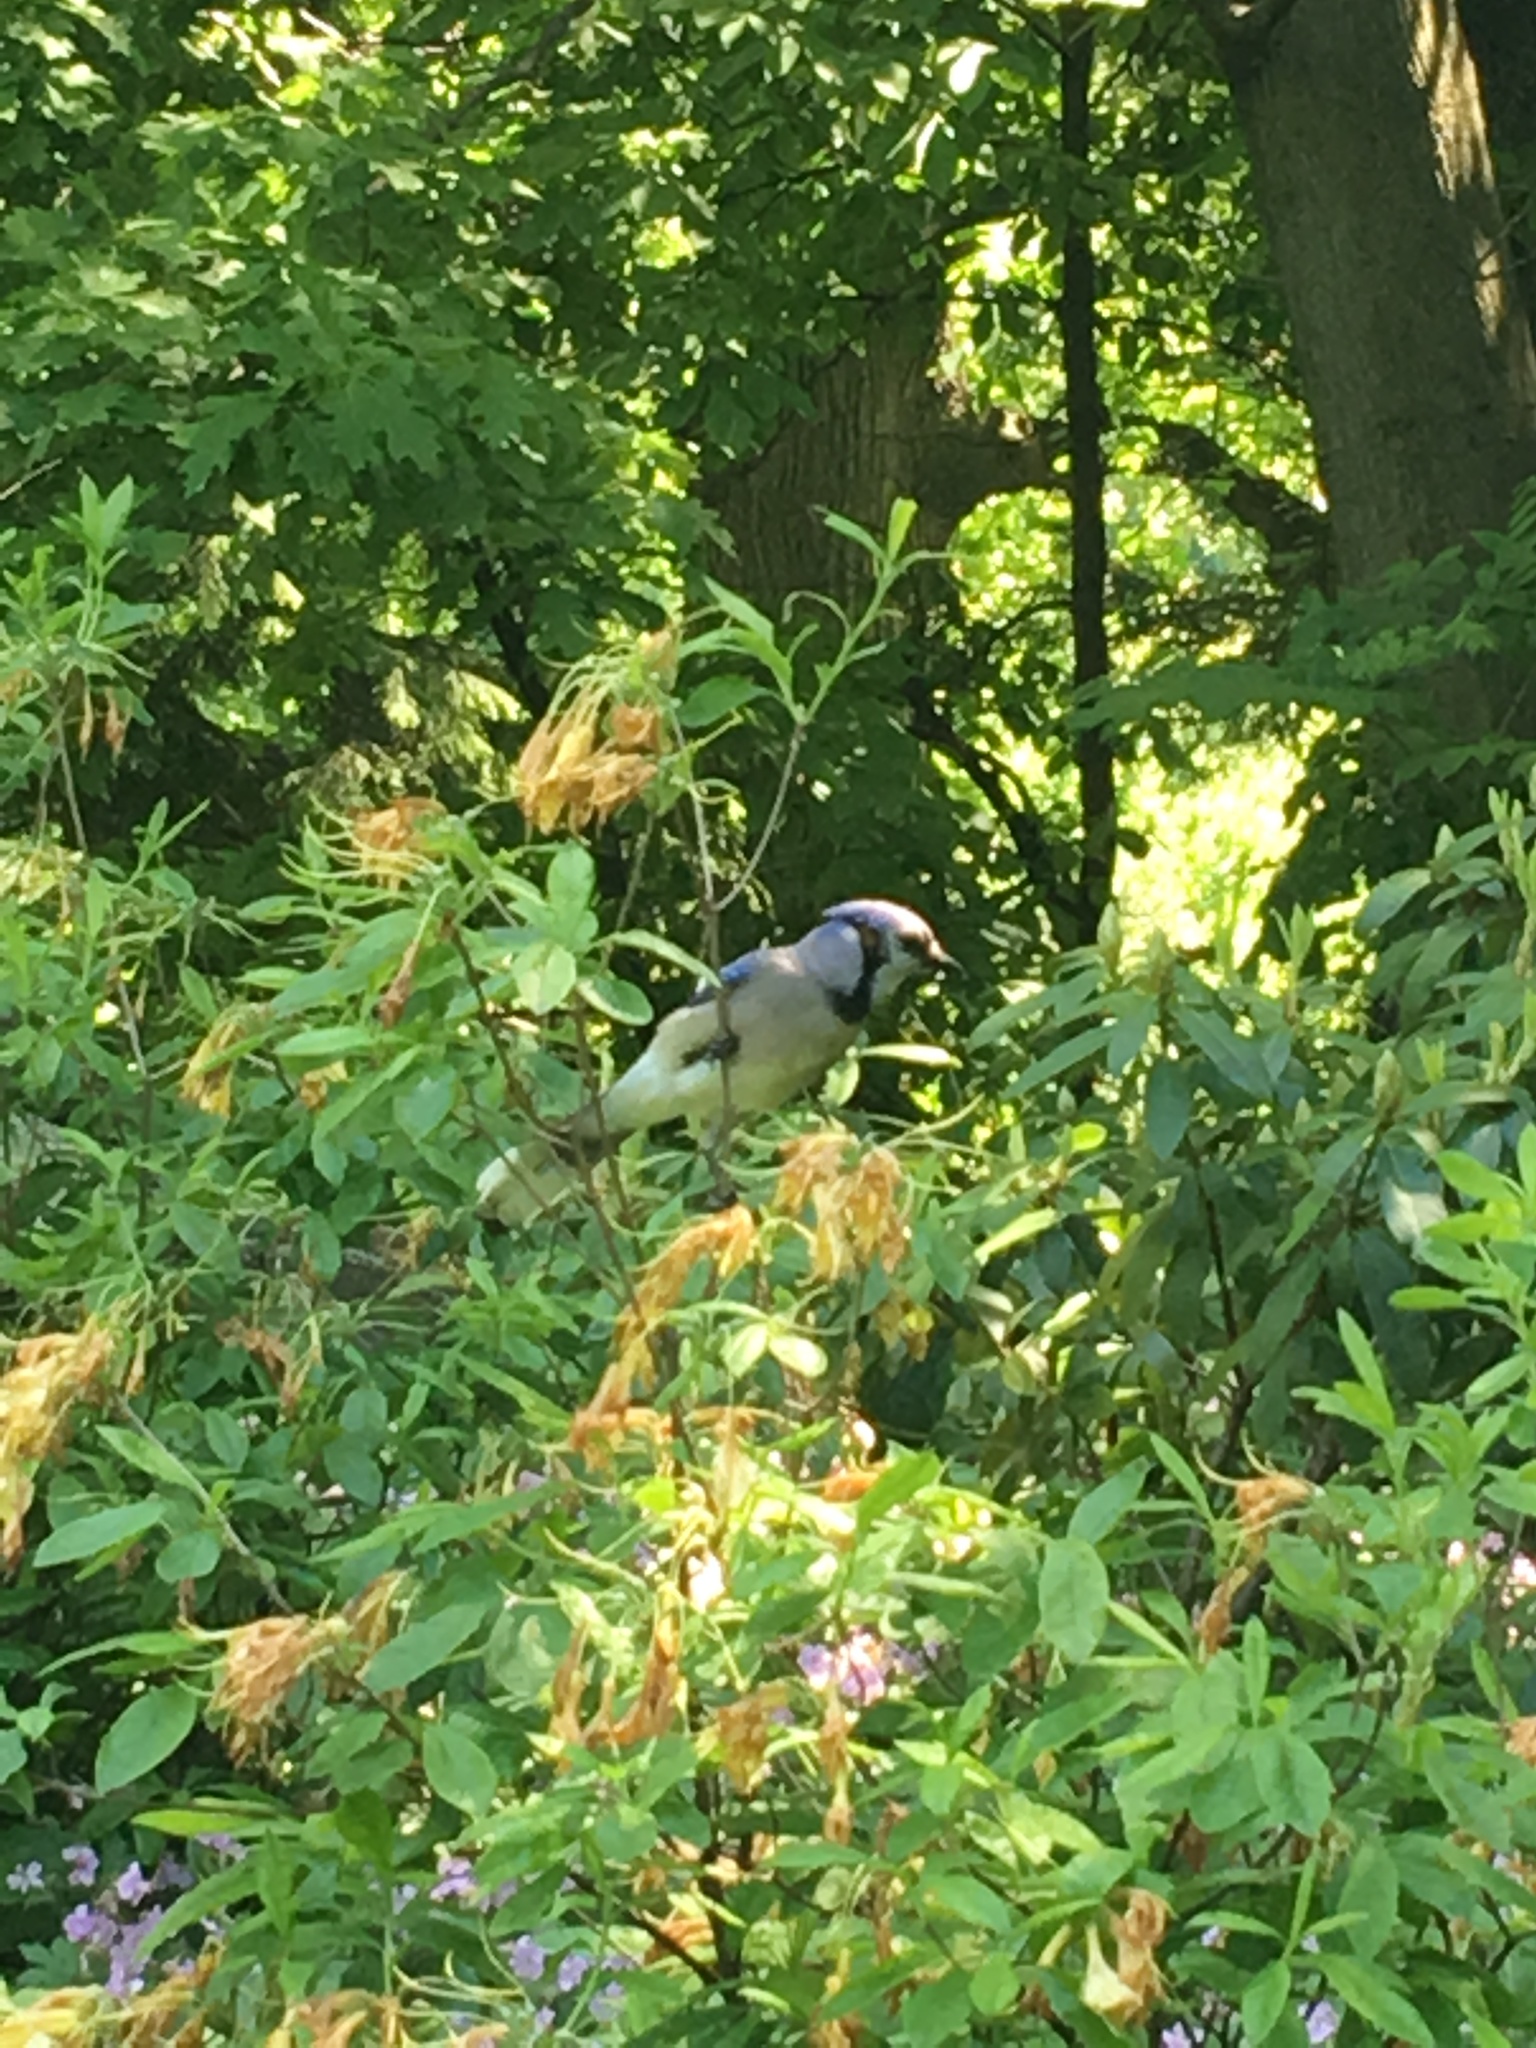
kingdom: Animalia
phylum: Chordata
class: Aves
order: Passeriformes
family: Corvidae
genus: Cyanocitta
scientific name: Cyanocitta cristata
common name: Blue jay
